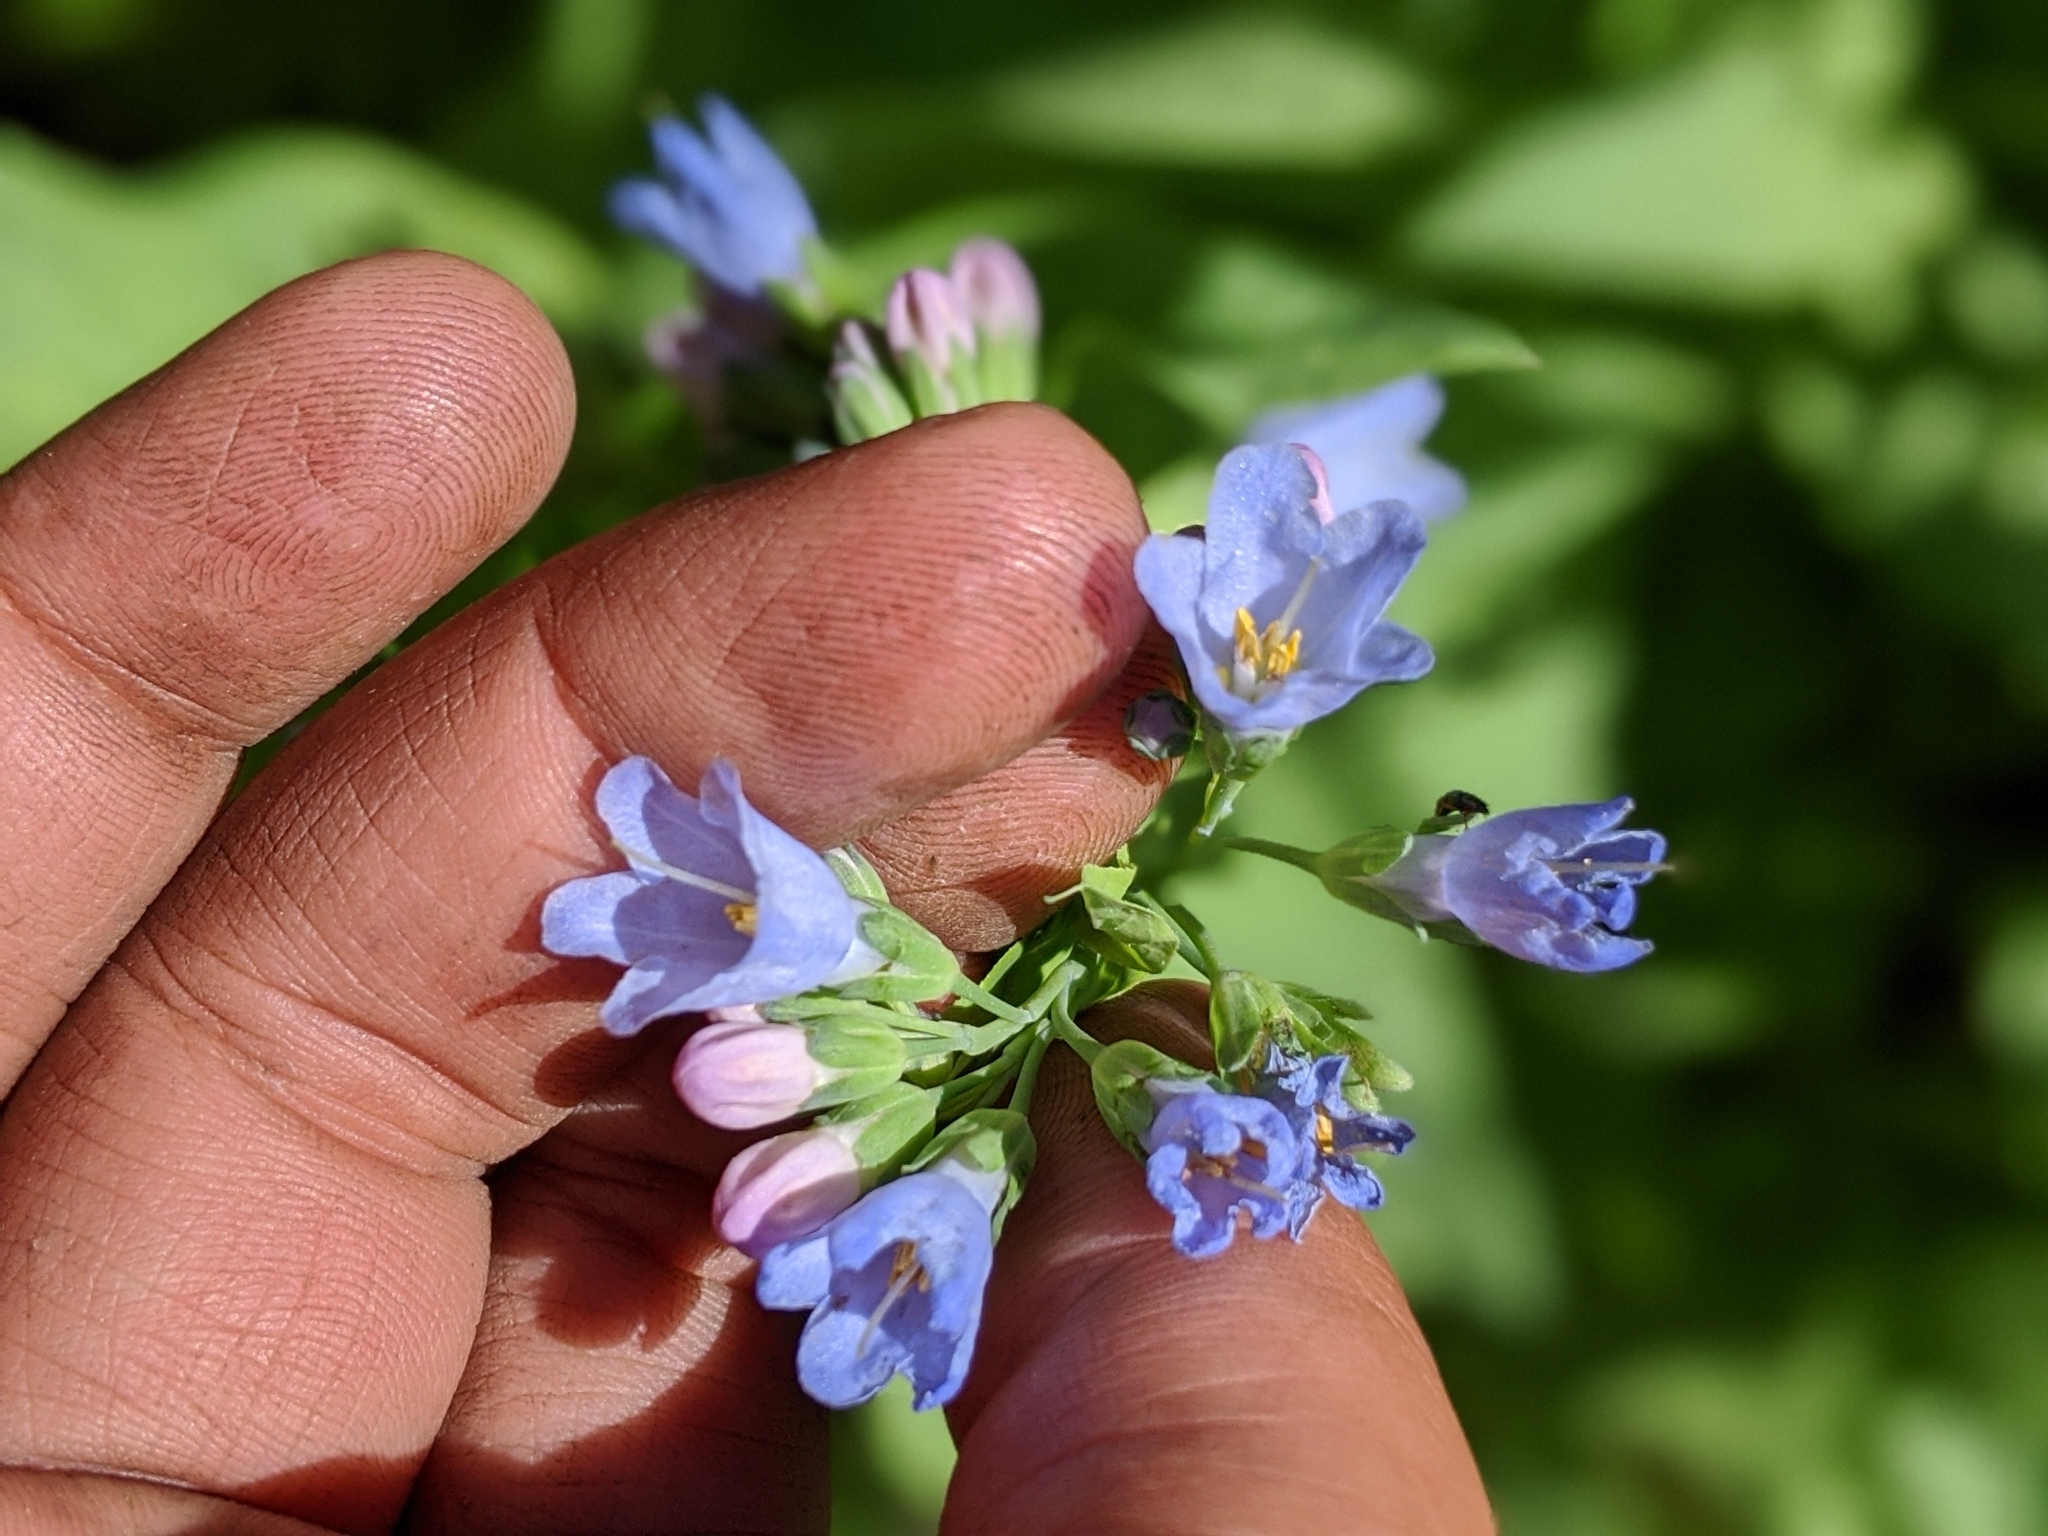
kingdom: Plantae
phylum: Tracheophyta
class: Magnoliopsida
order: Boraginales
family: Boraginaceae
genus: Mertensia
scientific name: Mertensia ciliata
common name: Tall chiming-bells
